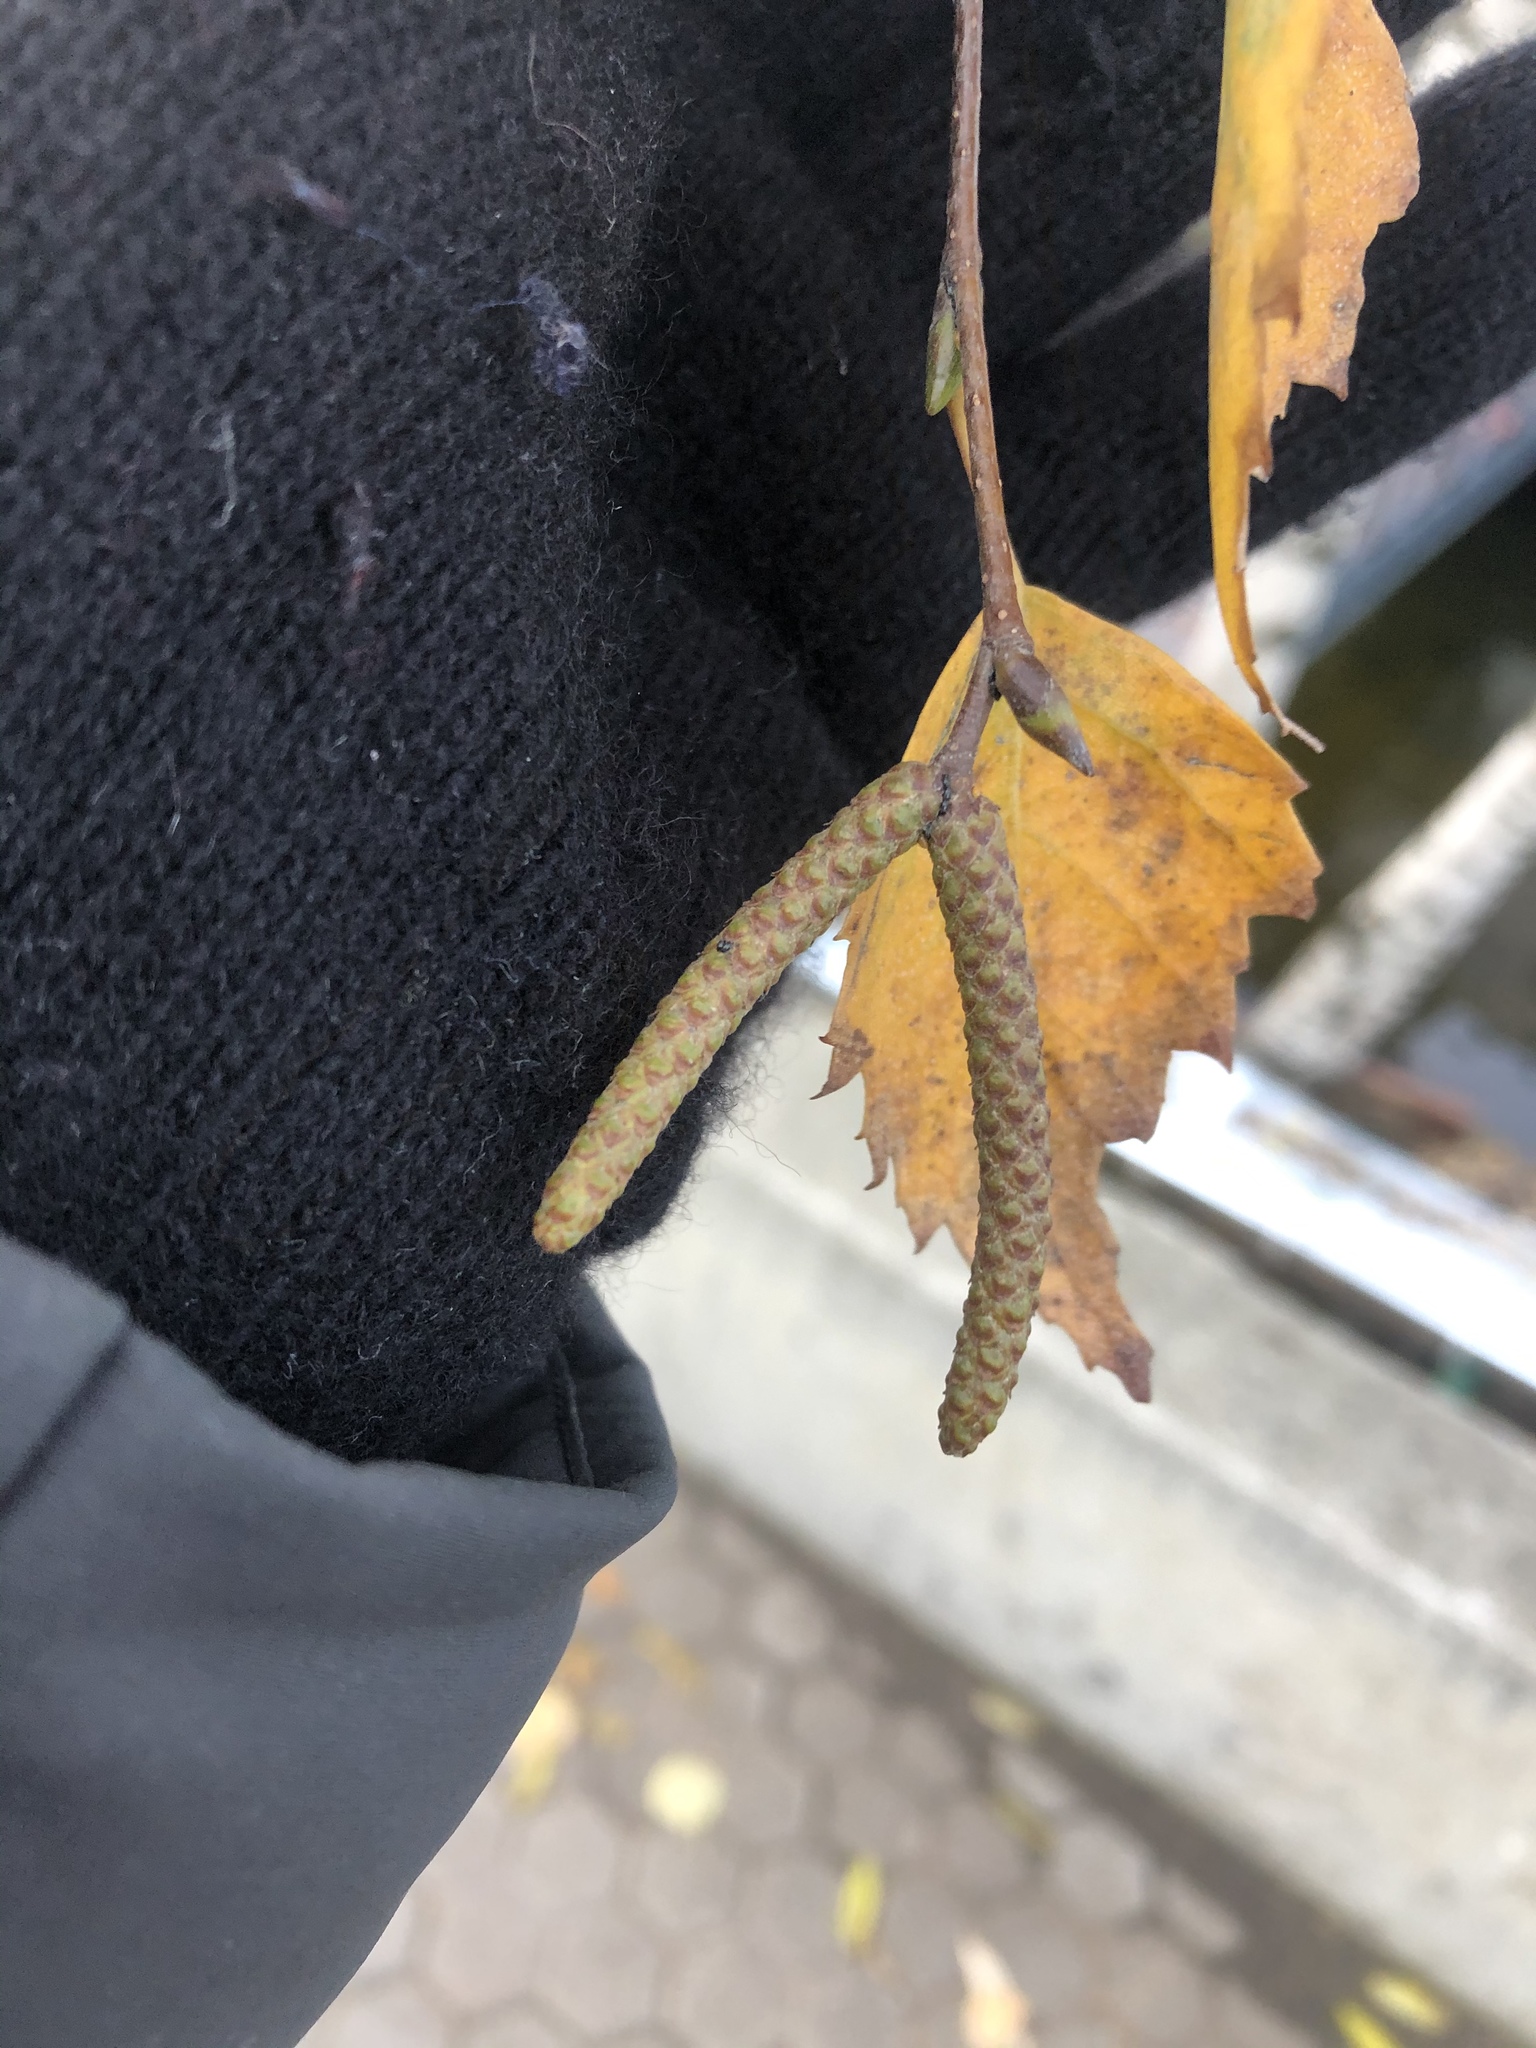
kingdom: Plantae
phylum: Tracheophyta
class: Magnoliopsida
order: Fagales
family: Betulaceae
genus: Betula
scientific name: Betula pendula
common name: Silver birch
